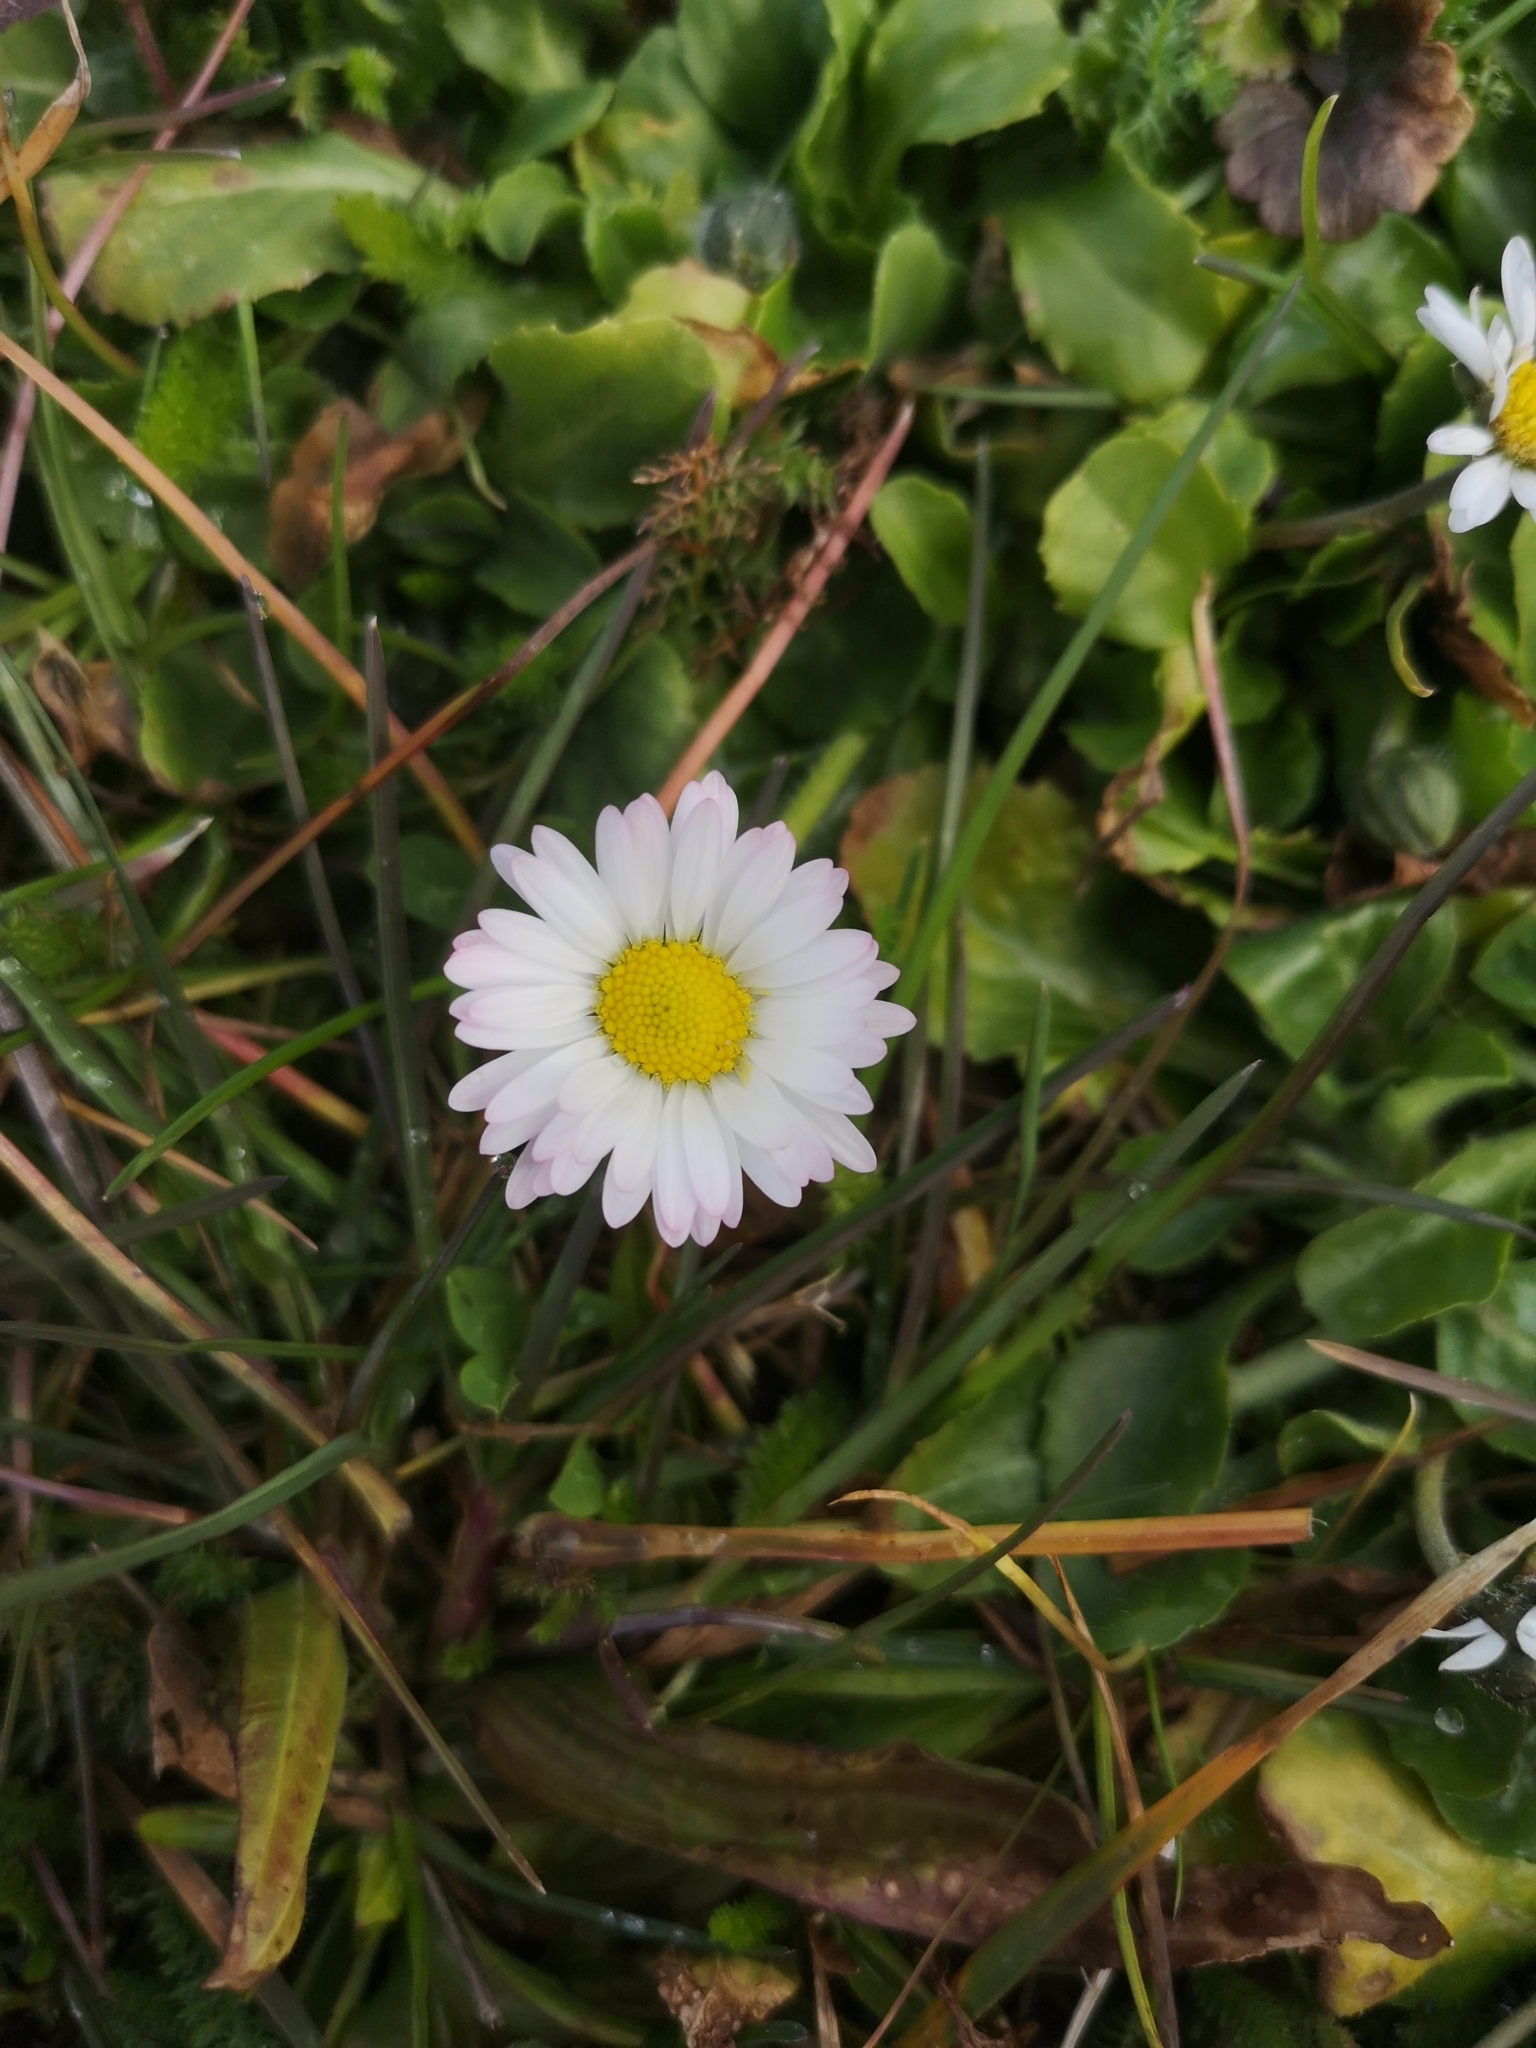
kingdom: Plantae
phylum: Tracheophyta
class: Magnoliopsida
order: Asterales
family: Asteraceae
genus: Bellis
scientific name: Bellis perennis
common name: Lawndaisy
